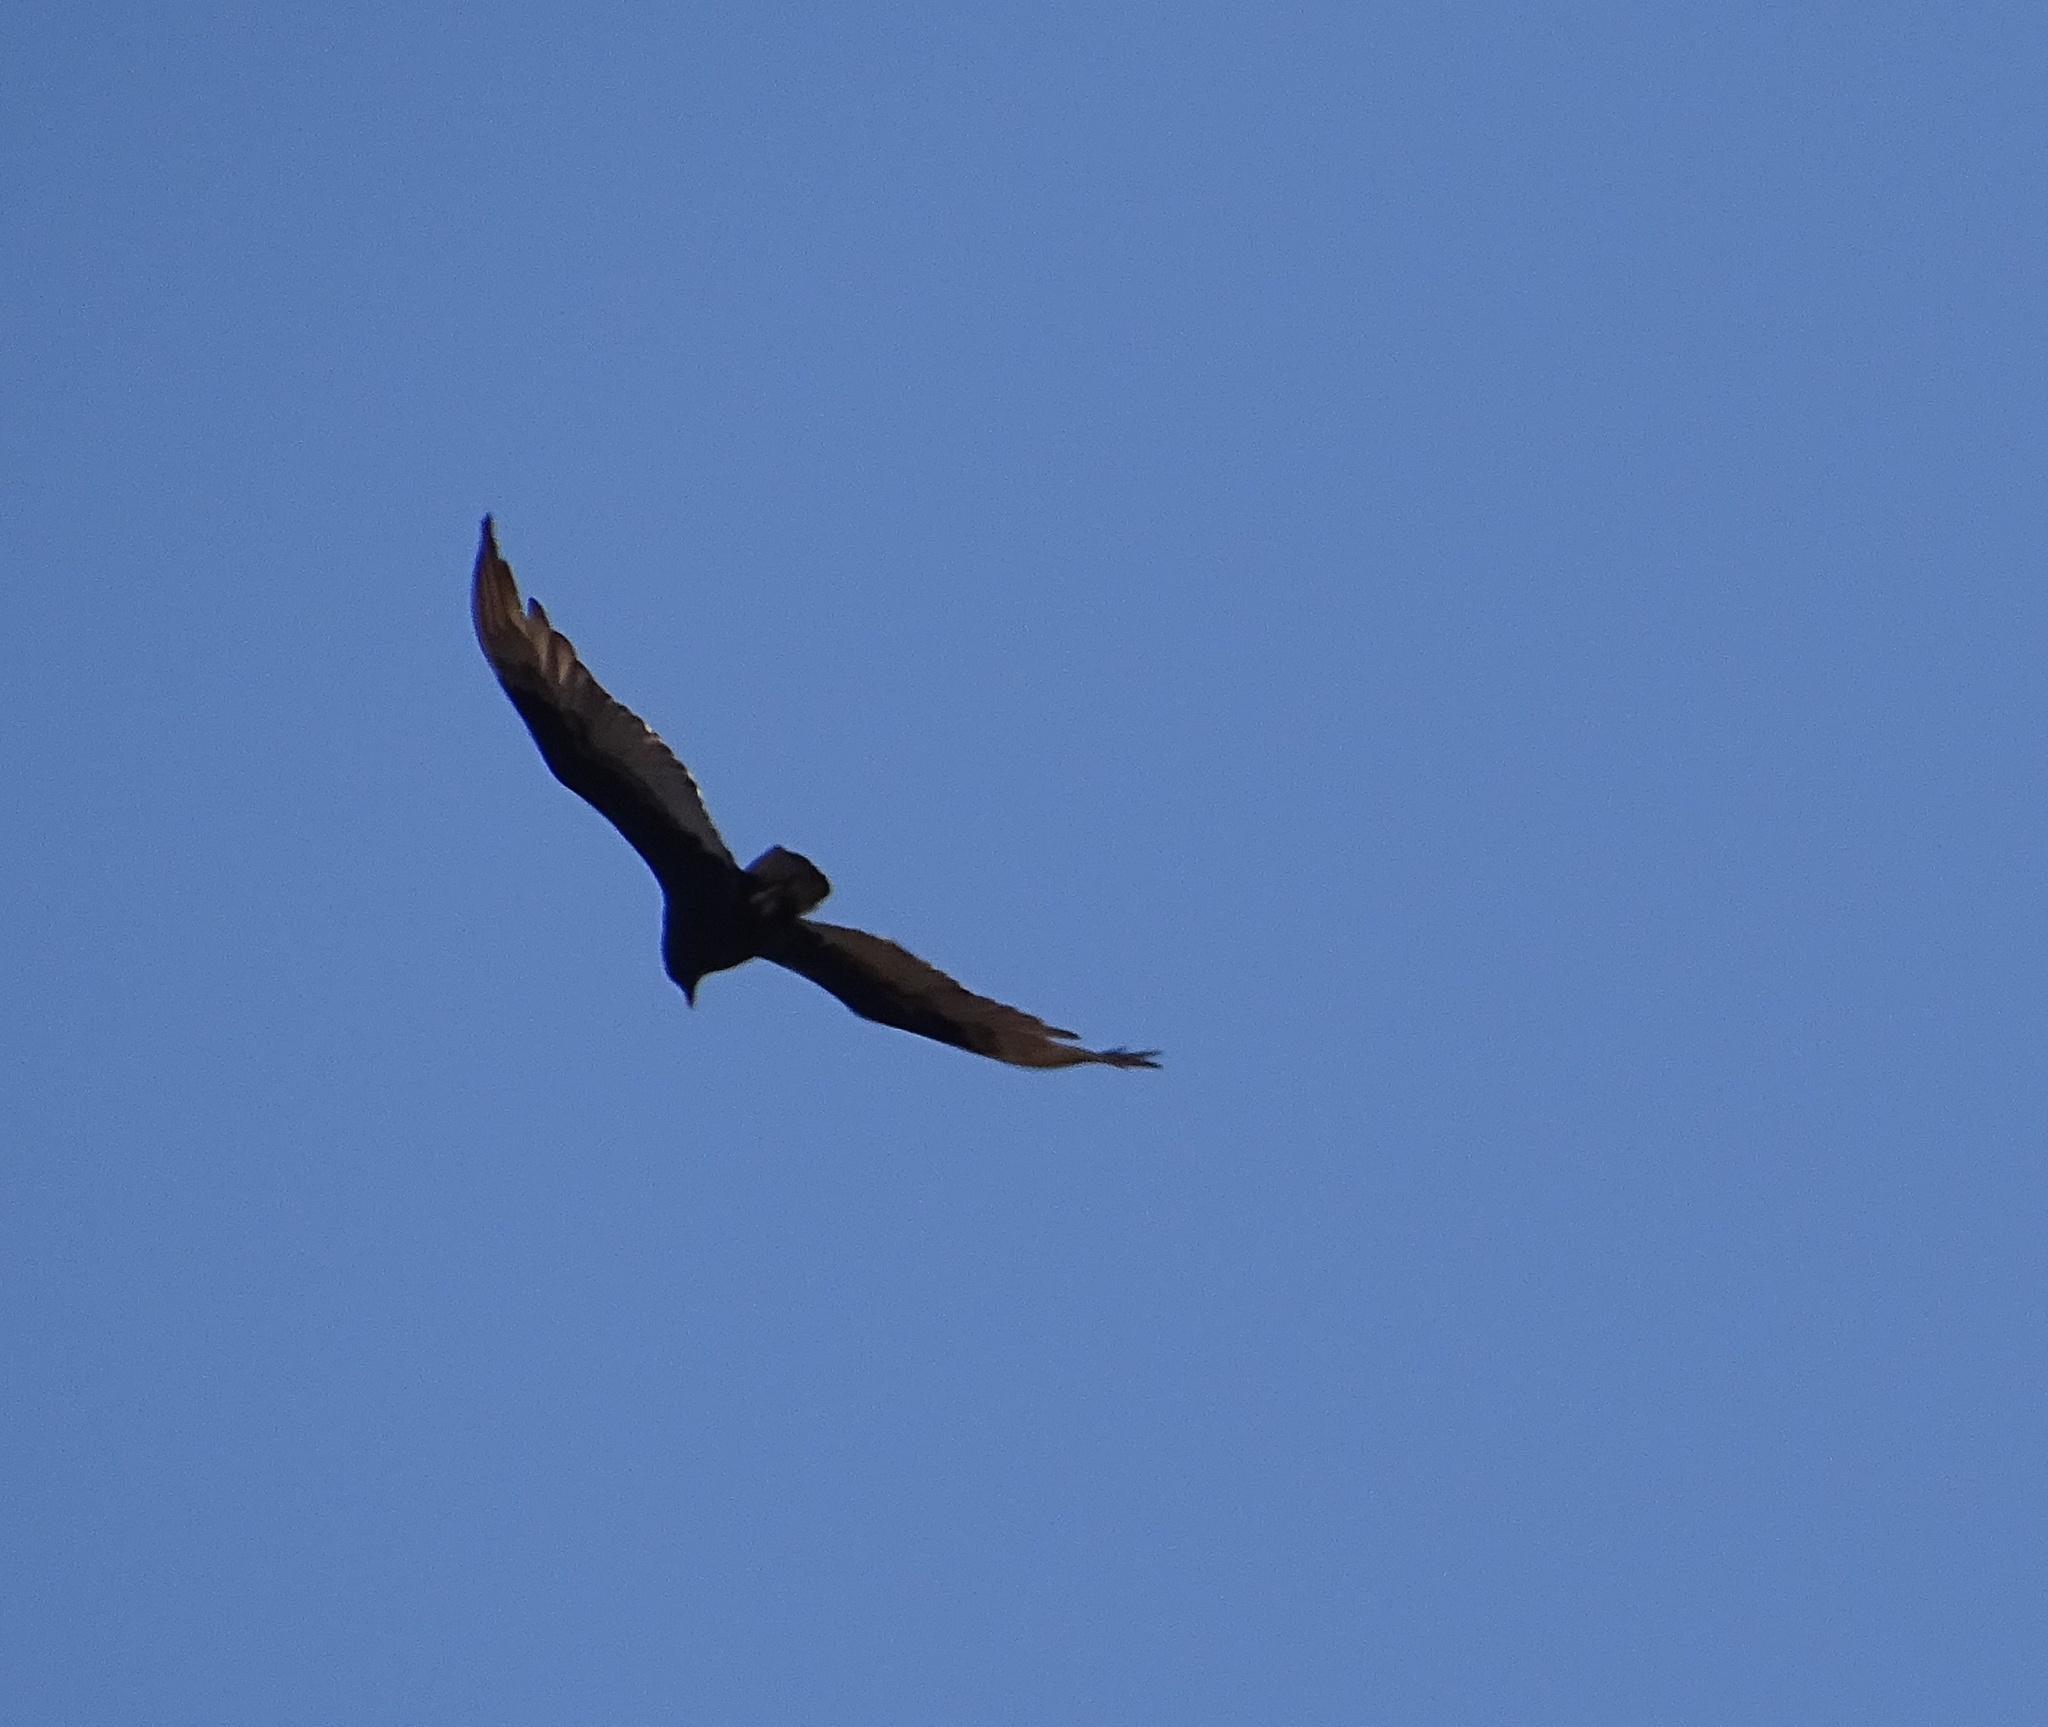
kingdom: Animalia
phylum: Chordata
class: Aves
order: Accipitriformes
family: Cathartidae
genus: Cathartes
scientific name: Cathartes aura
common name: Turkey vulture
